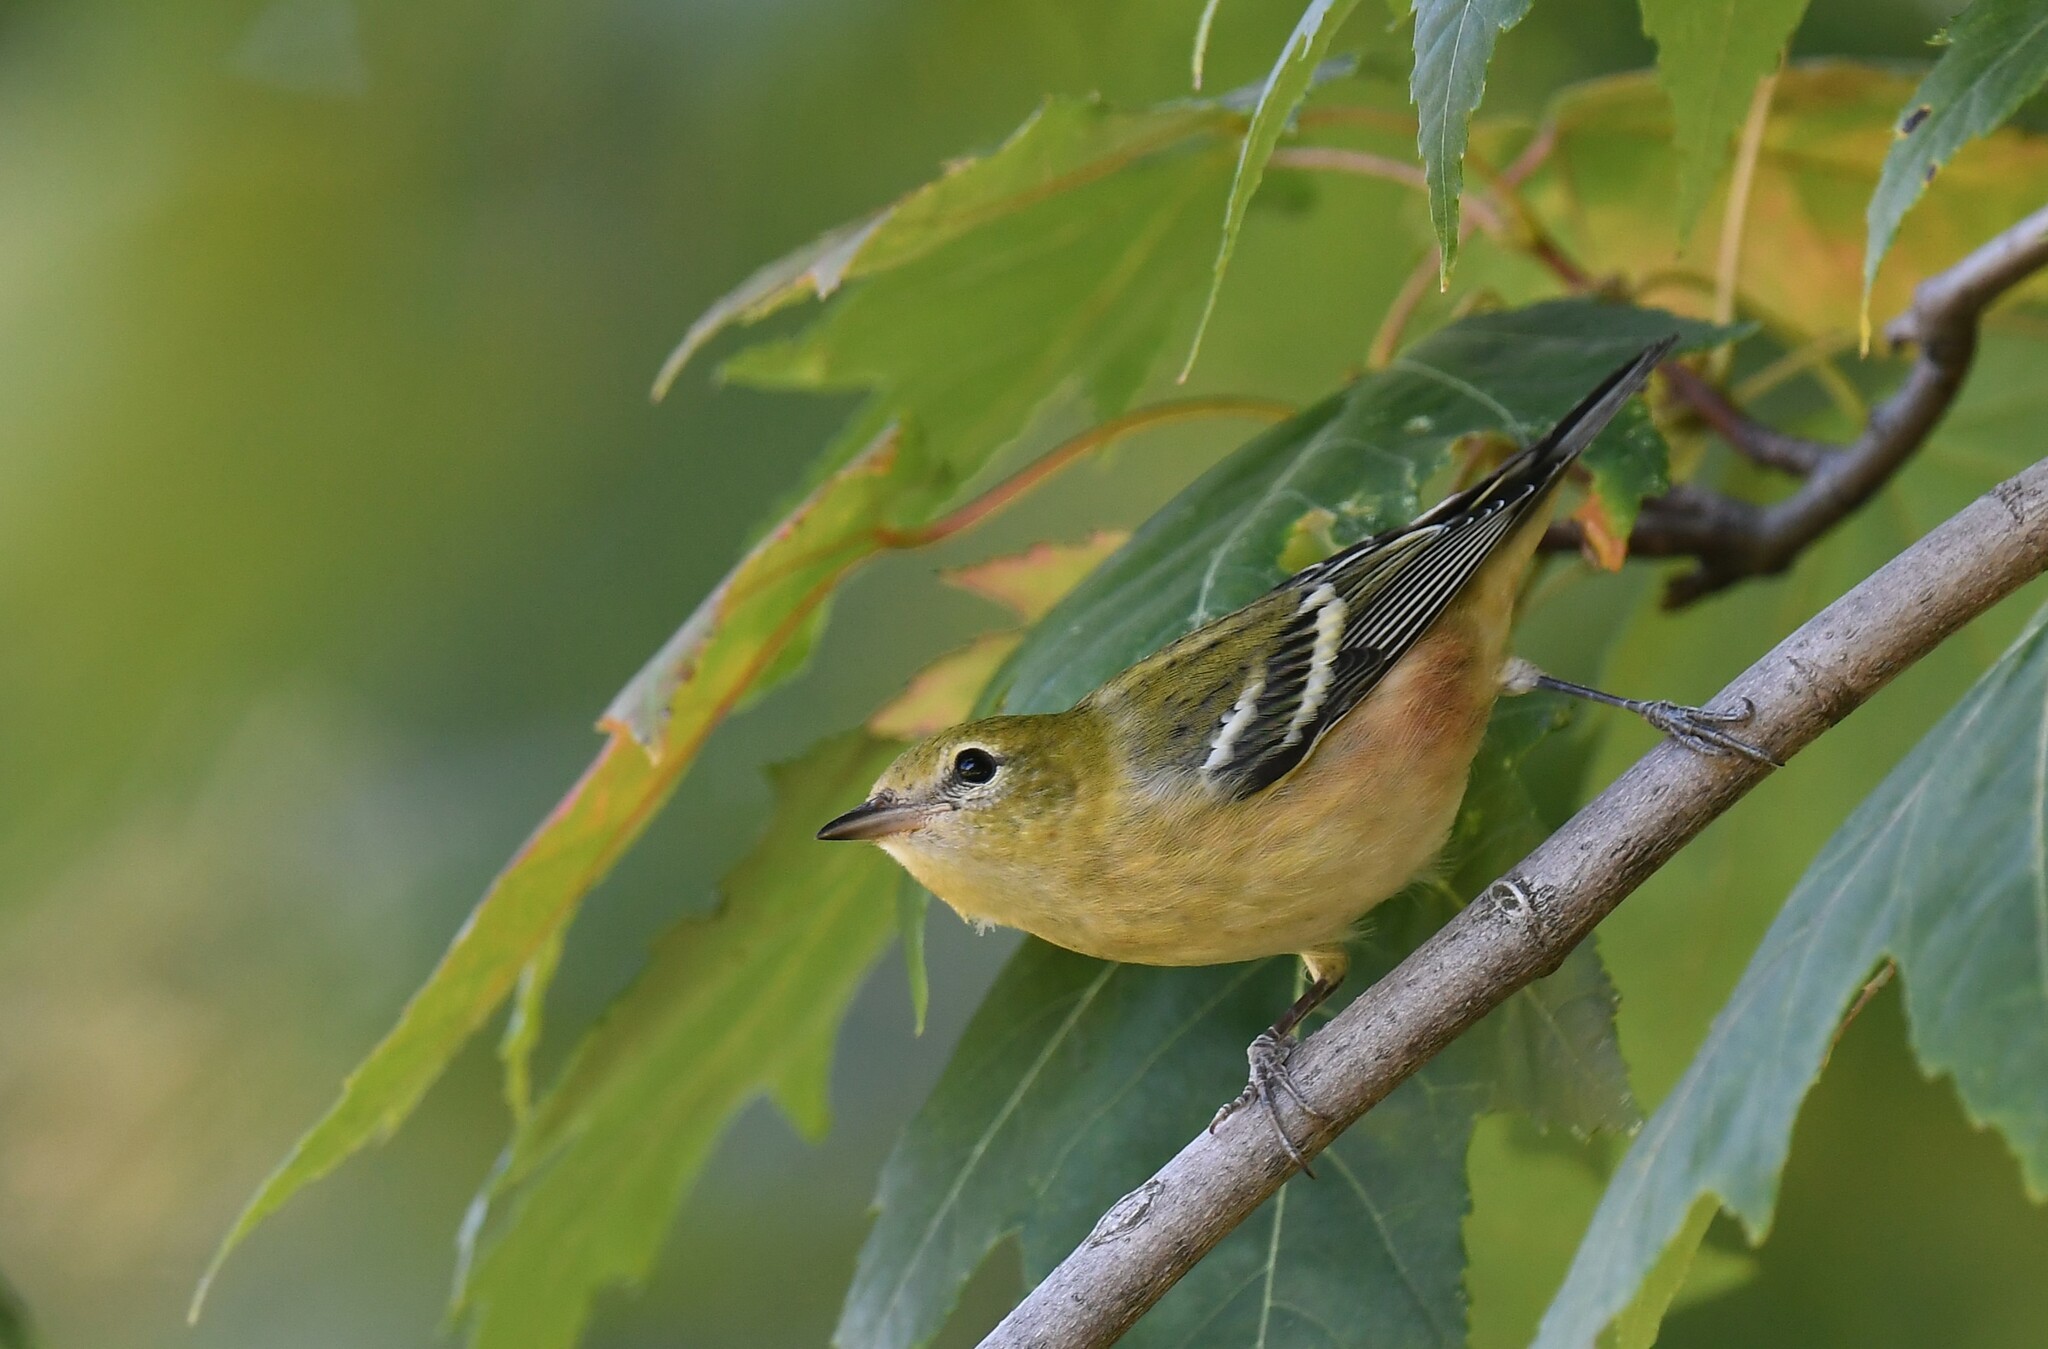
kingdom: Animalia
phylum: Chordata
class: Aves
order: Passeriformes
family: Parulidae
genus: Setophaga
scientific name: Setophaga castanea
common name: Bay-breasted warbler
